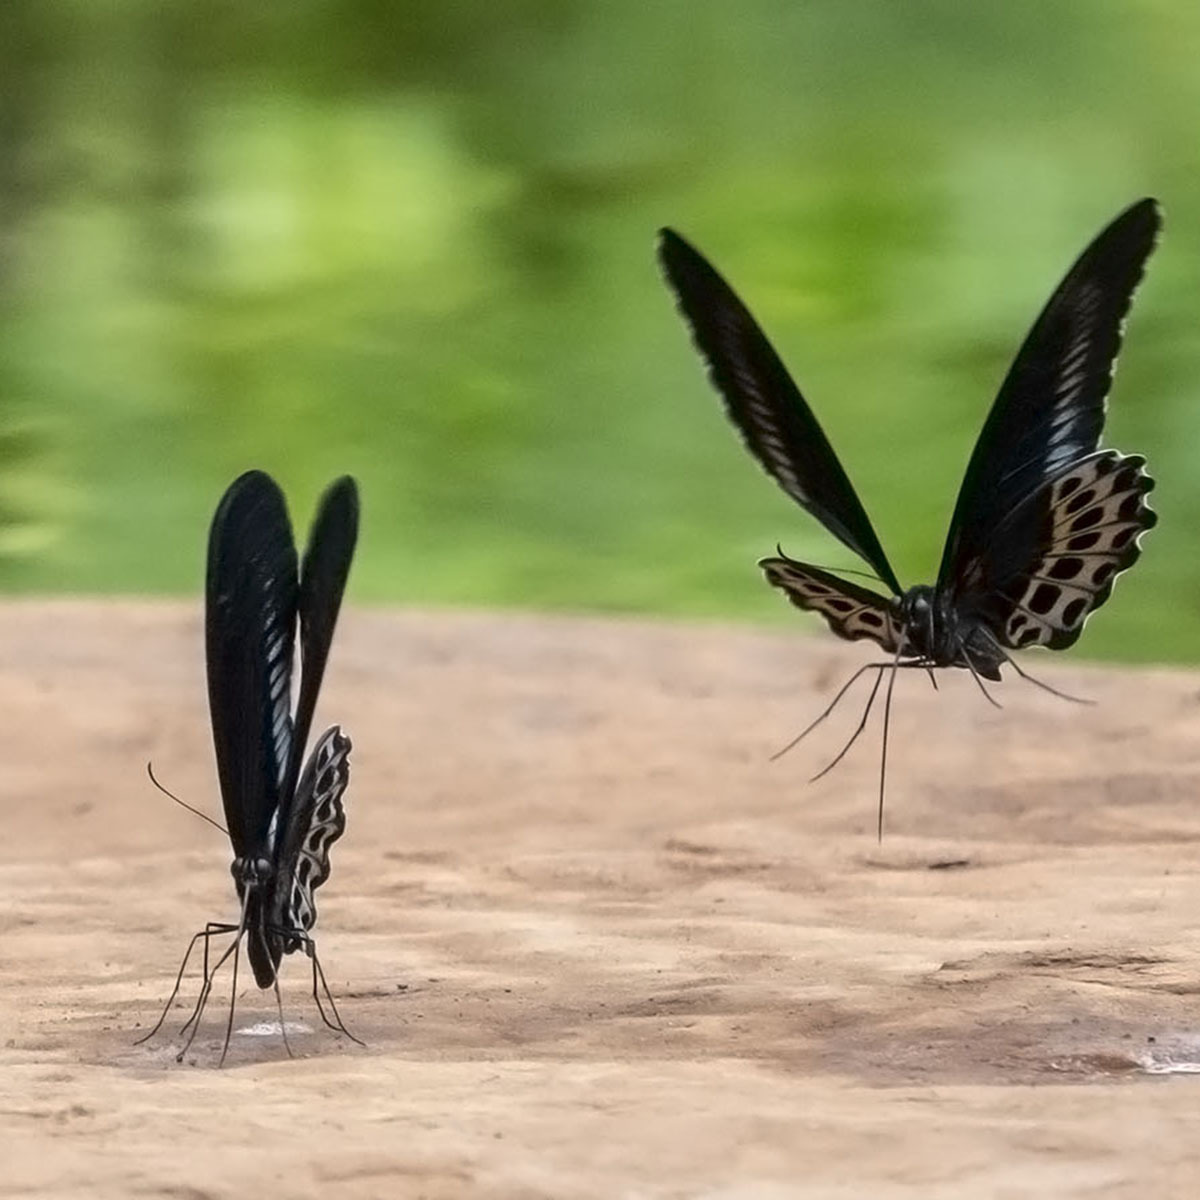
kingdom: Animalia
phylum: Arthropoda
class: Insecta
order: Lepidoptera
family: Papilionidae
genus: Papilio
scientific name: Papilio memnon
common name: Great mormon
